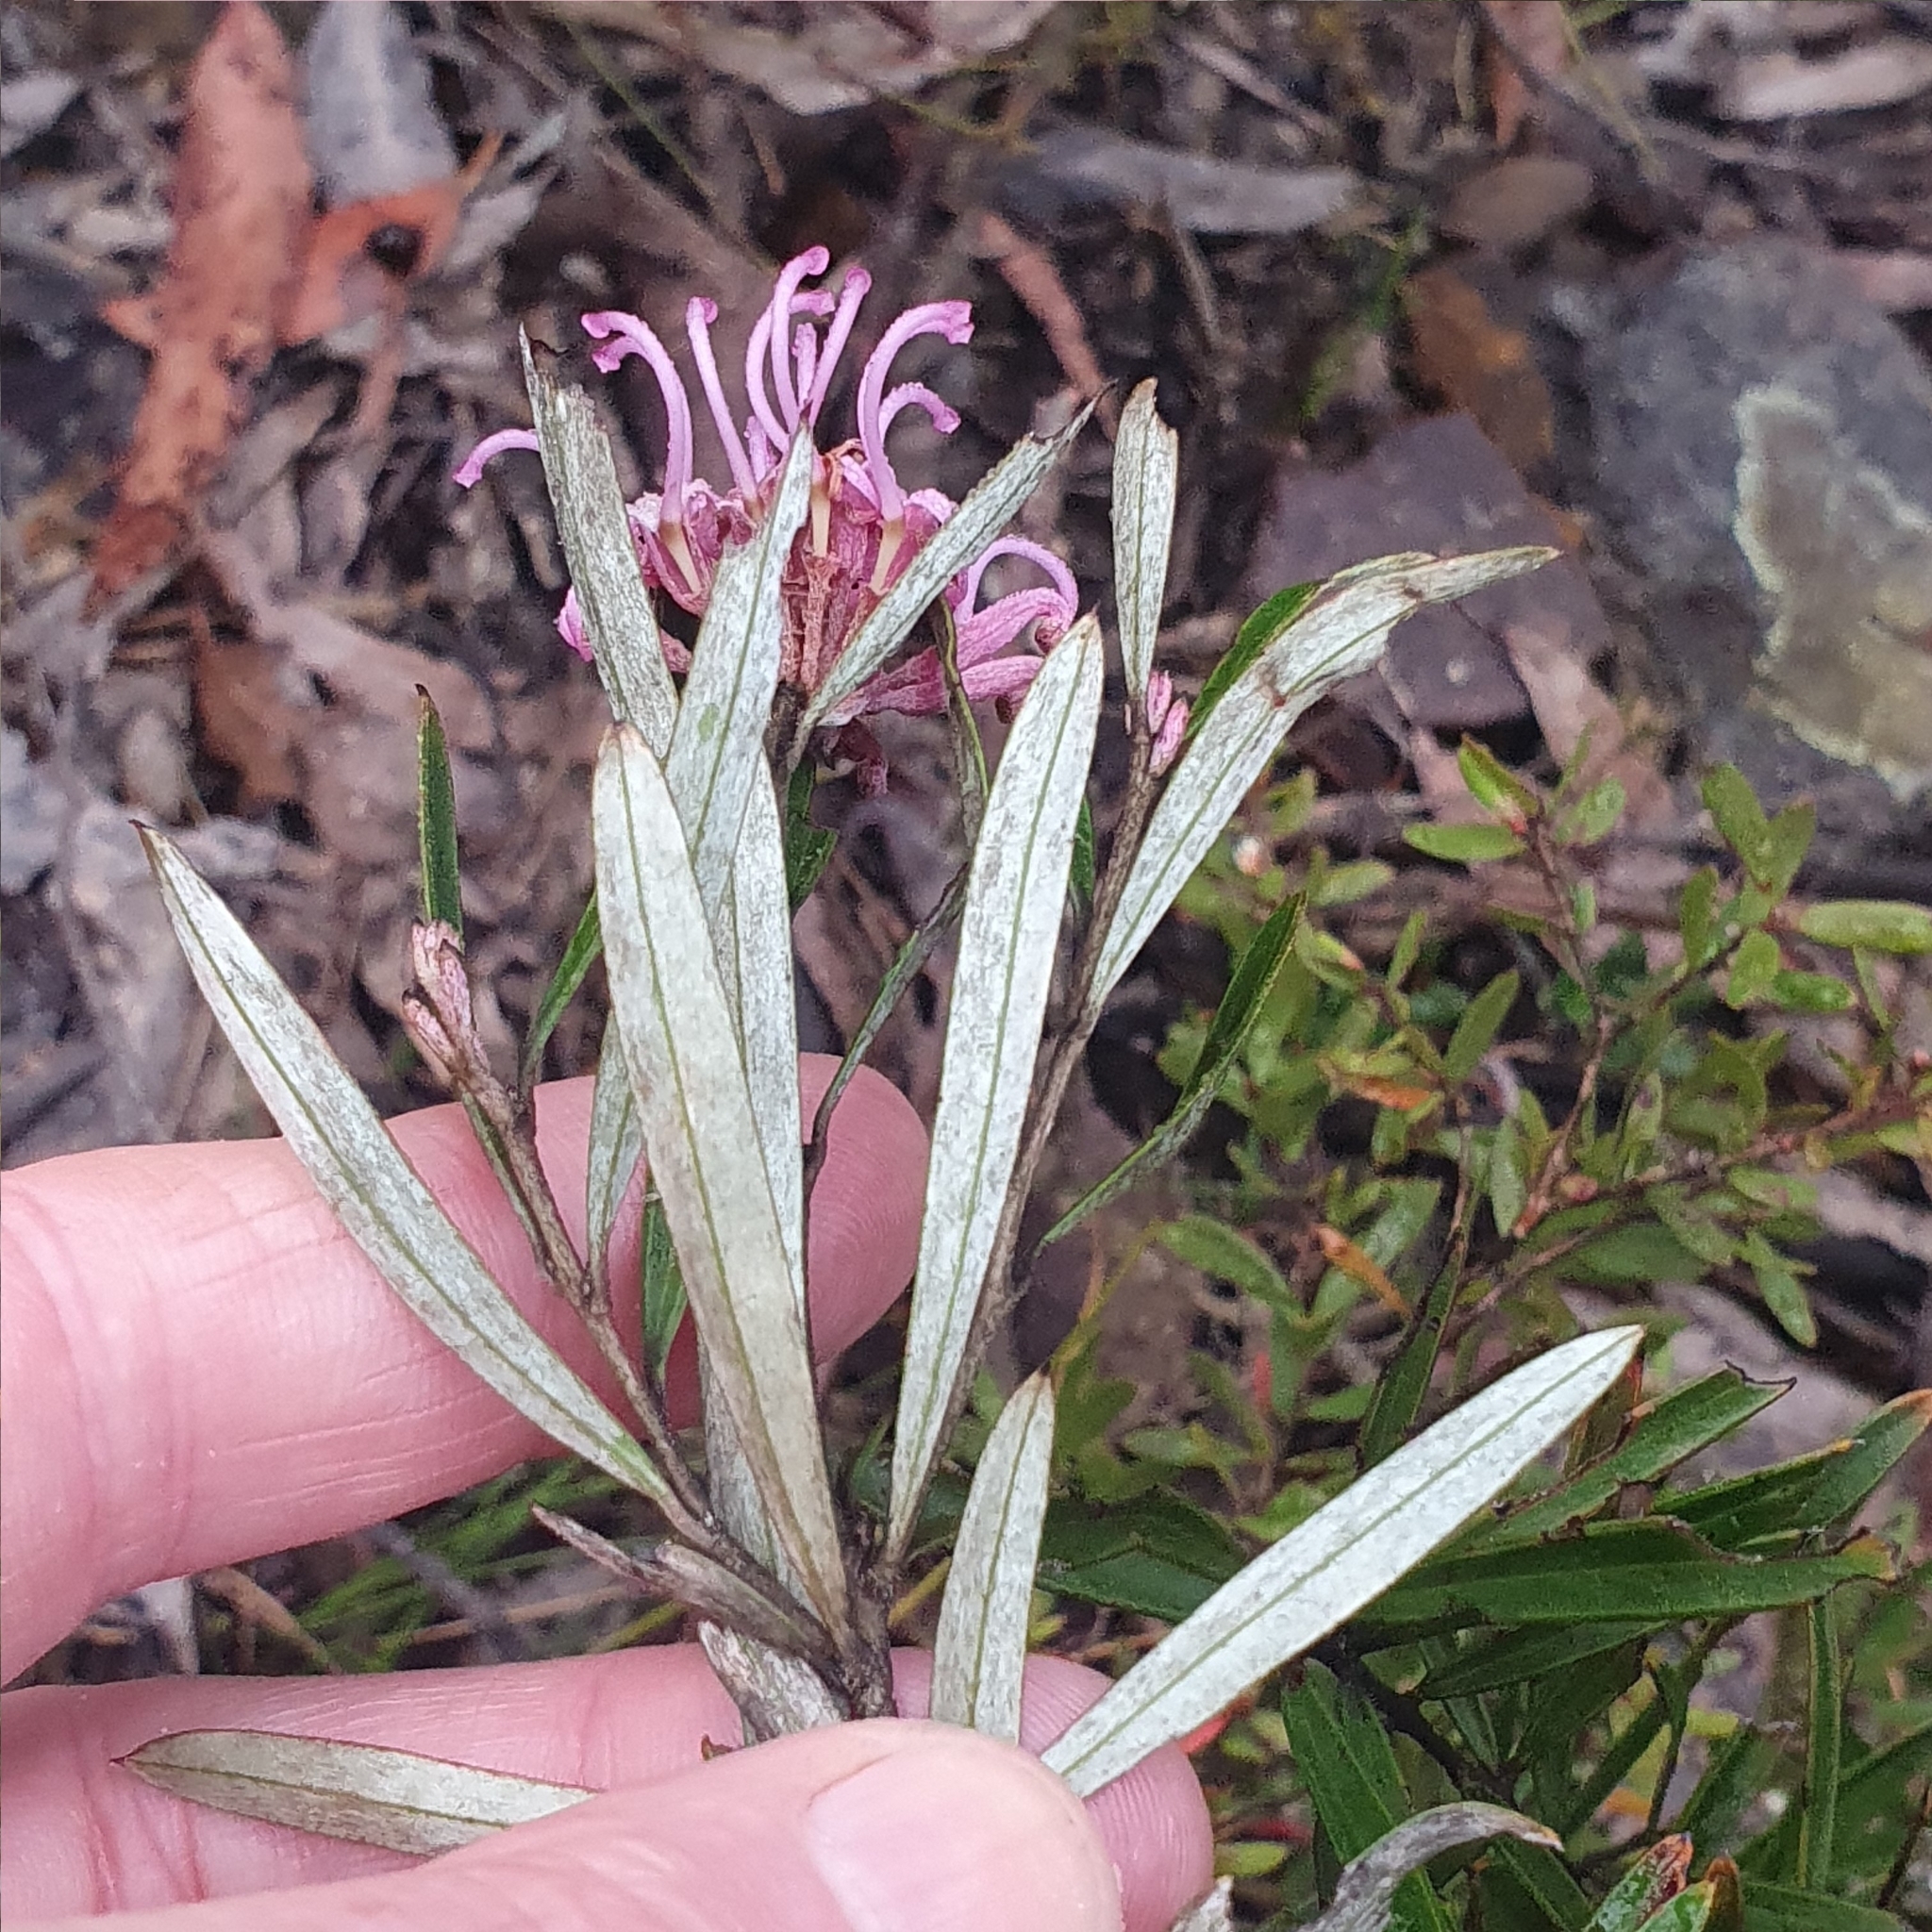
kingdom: Plantae
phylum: Tracheophyta
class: Magnoliopsida
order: Proteales
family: Proteaceae
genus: Grevillea
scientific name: Grevillea sericea
